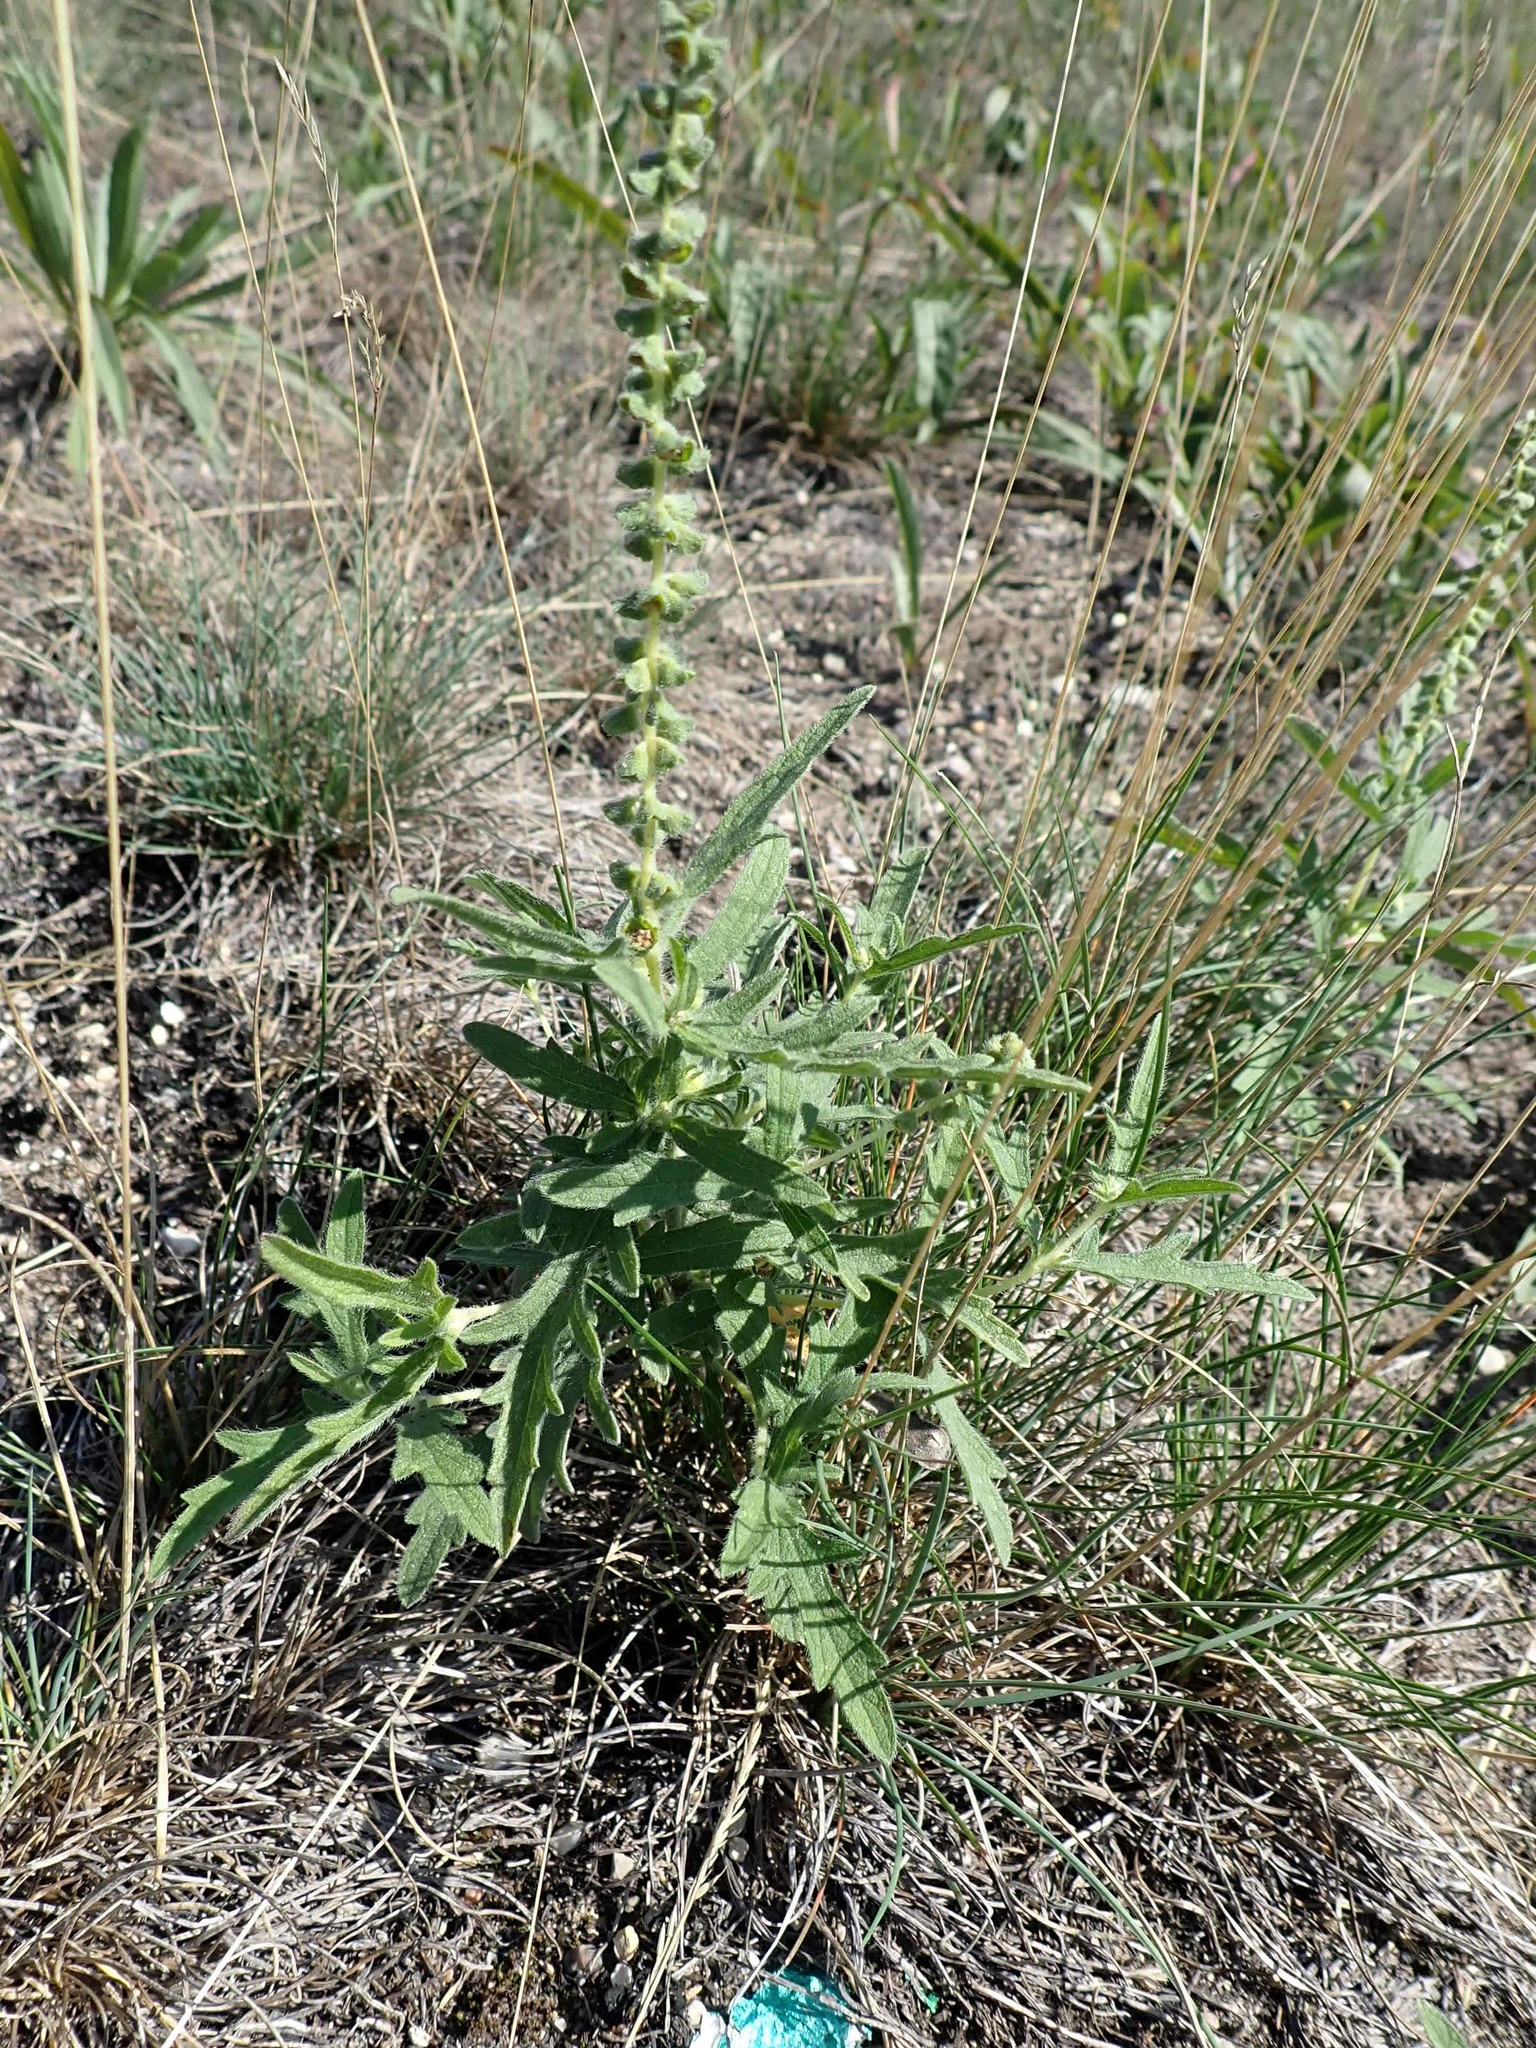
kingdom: Plantae
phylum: Tracheophyta
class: Magnoliopsida
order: Asterales
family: Asteraceae
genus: Ambrosia
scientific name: Ambrosia psilostachya
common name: Perennial ragweed
